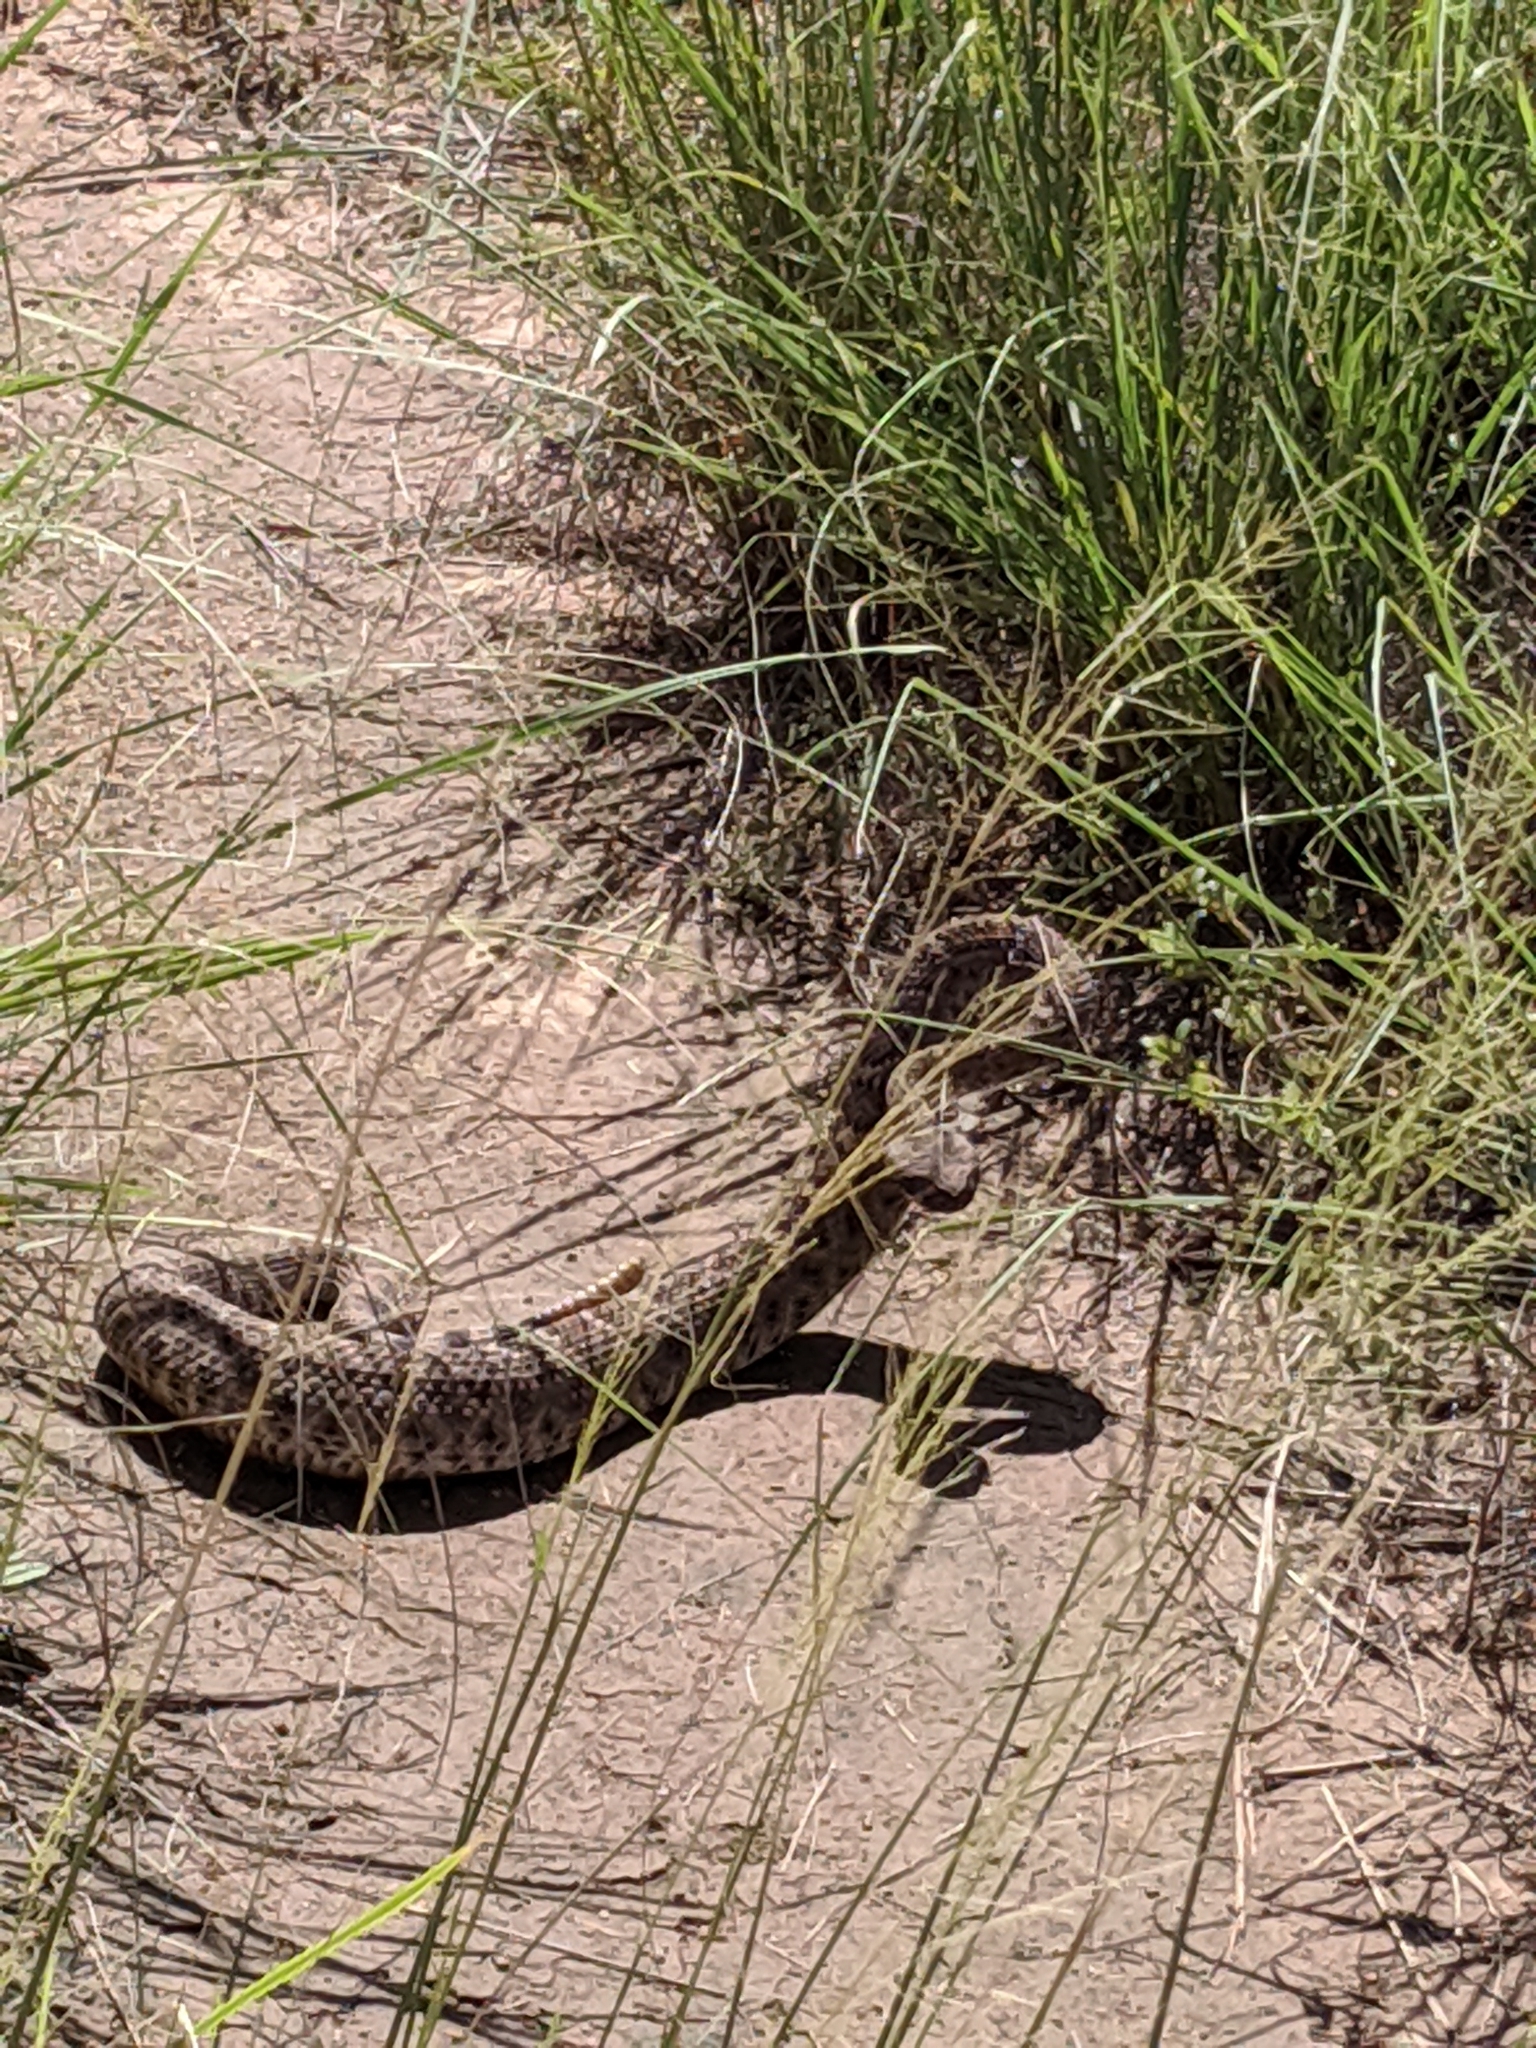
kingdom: Animalia
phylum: Chordata
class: Squamata
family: Viperidae
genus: Crotalus
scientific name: Crotalus atrox
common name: Western diamond-backed rattlesnake
